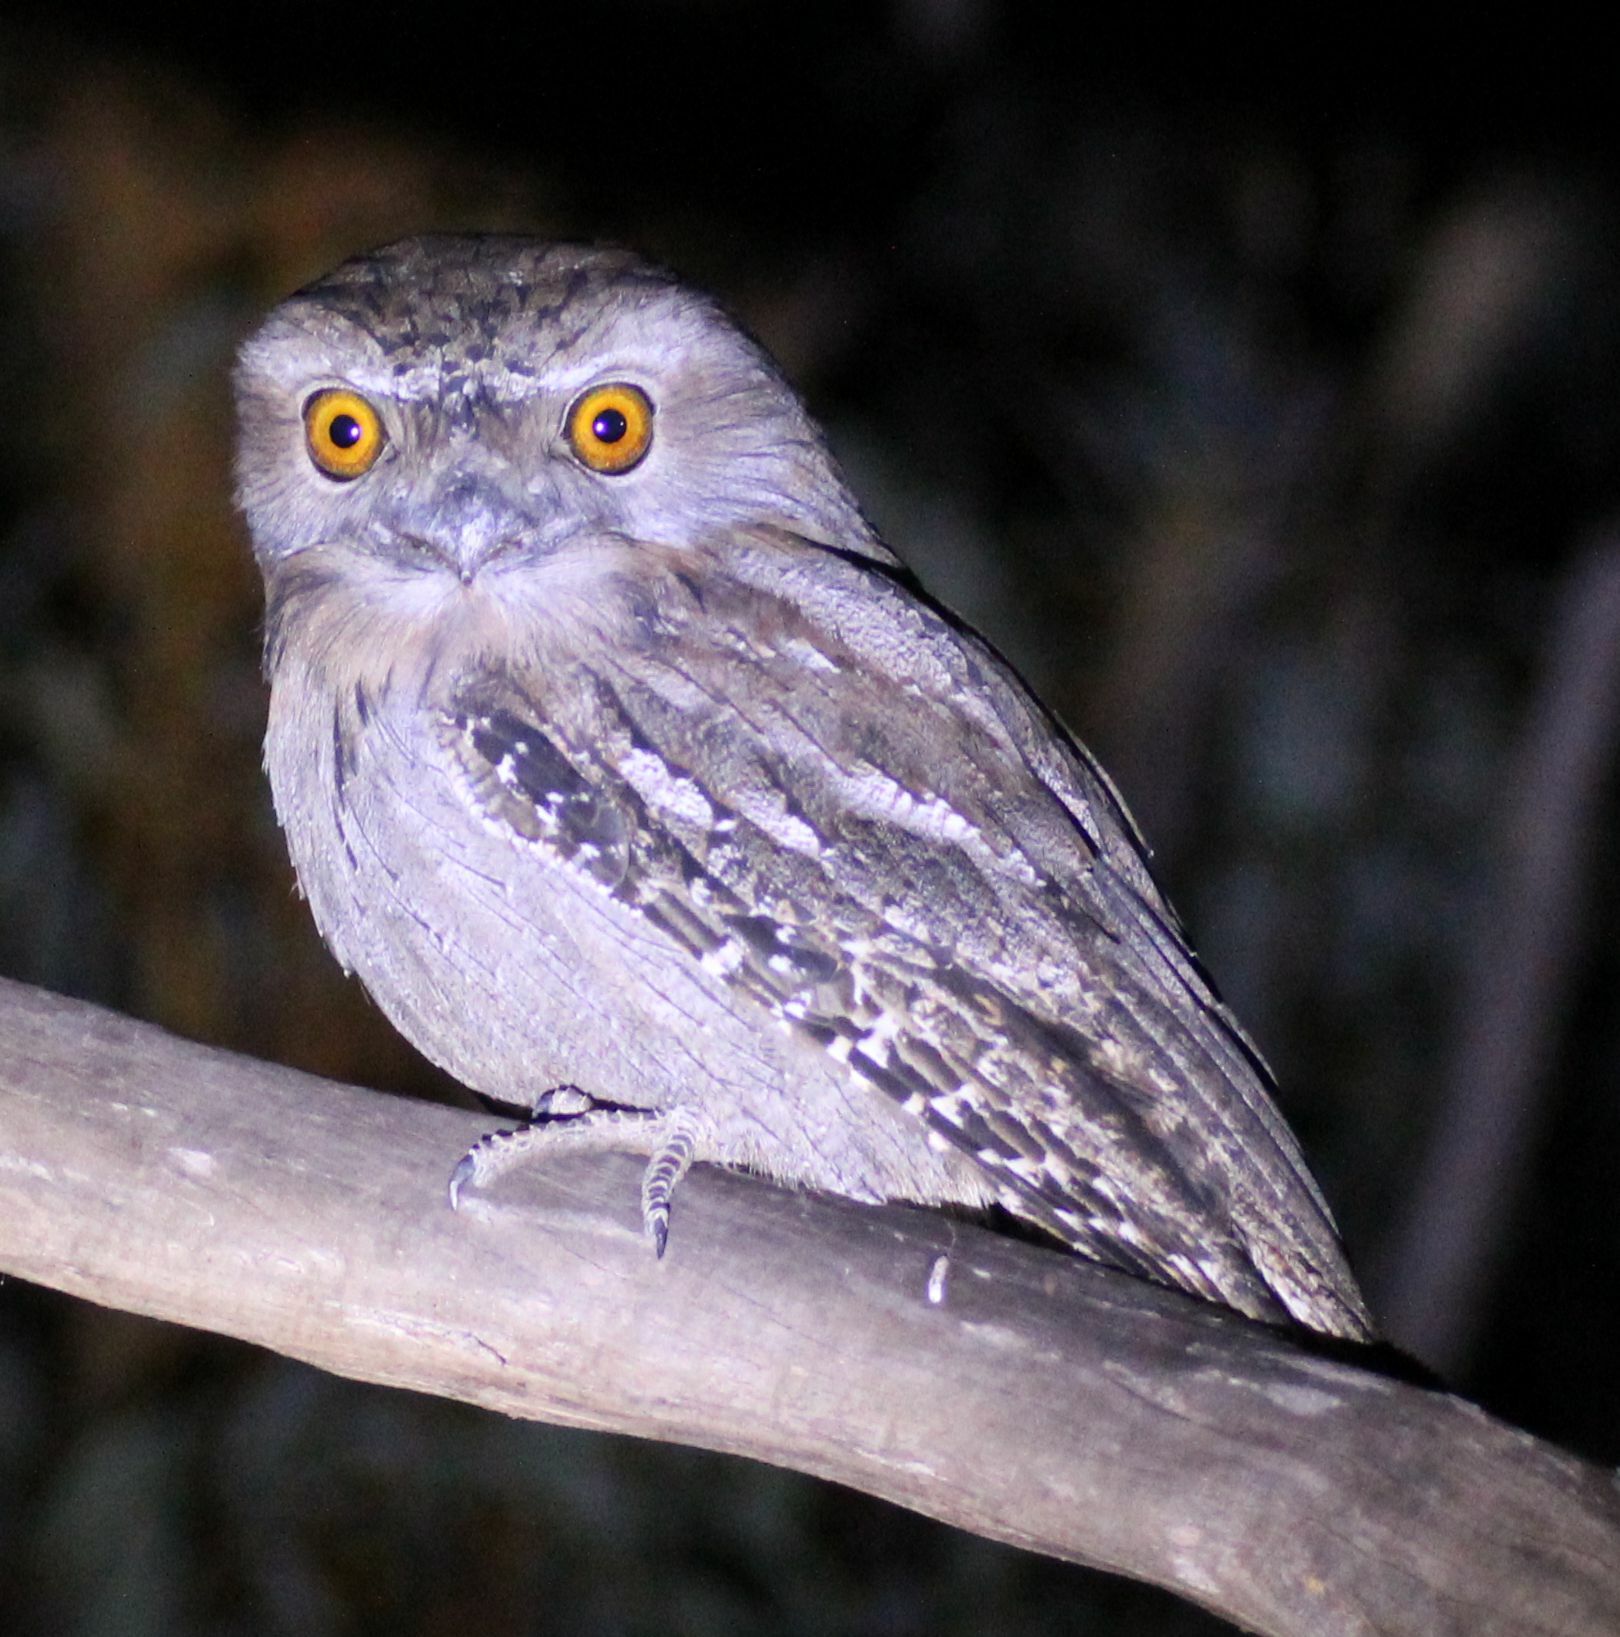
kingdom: Animalia
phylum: Chordata
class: Aves
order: Caprimulgiformes
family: Podargidae
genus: Podargus
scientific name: Podargus strigoides
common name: Tawny frogmouth
